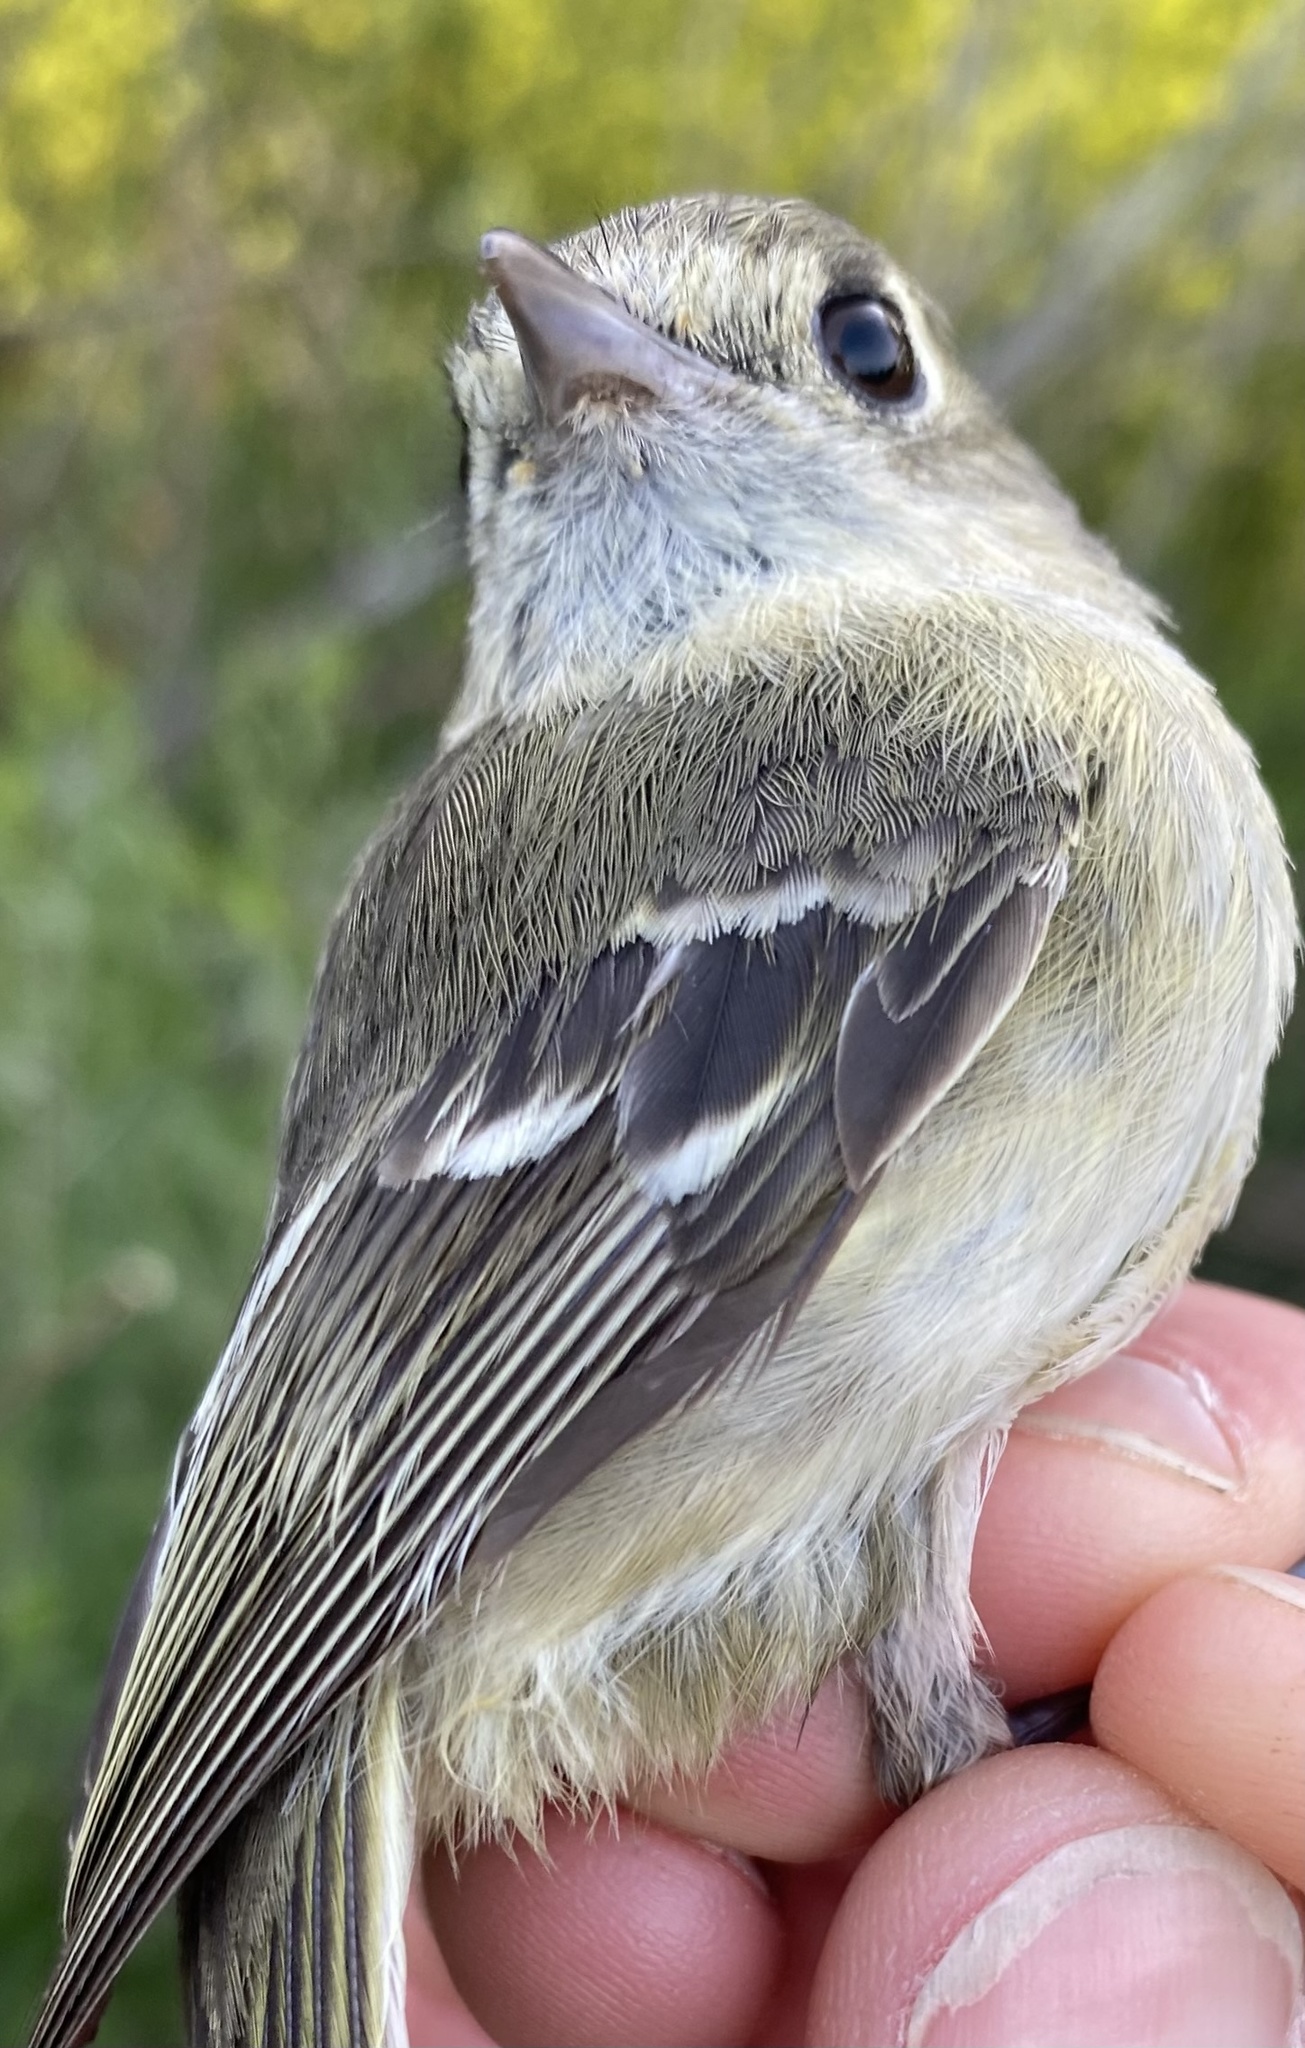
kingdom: Animalia
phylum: Chordata
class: Aves
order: Passeriformes
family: Vireonidae
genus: Vireo
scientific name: Vireo huttoni
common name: Hutton's vireo
